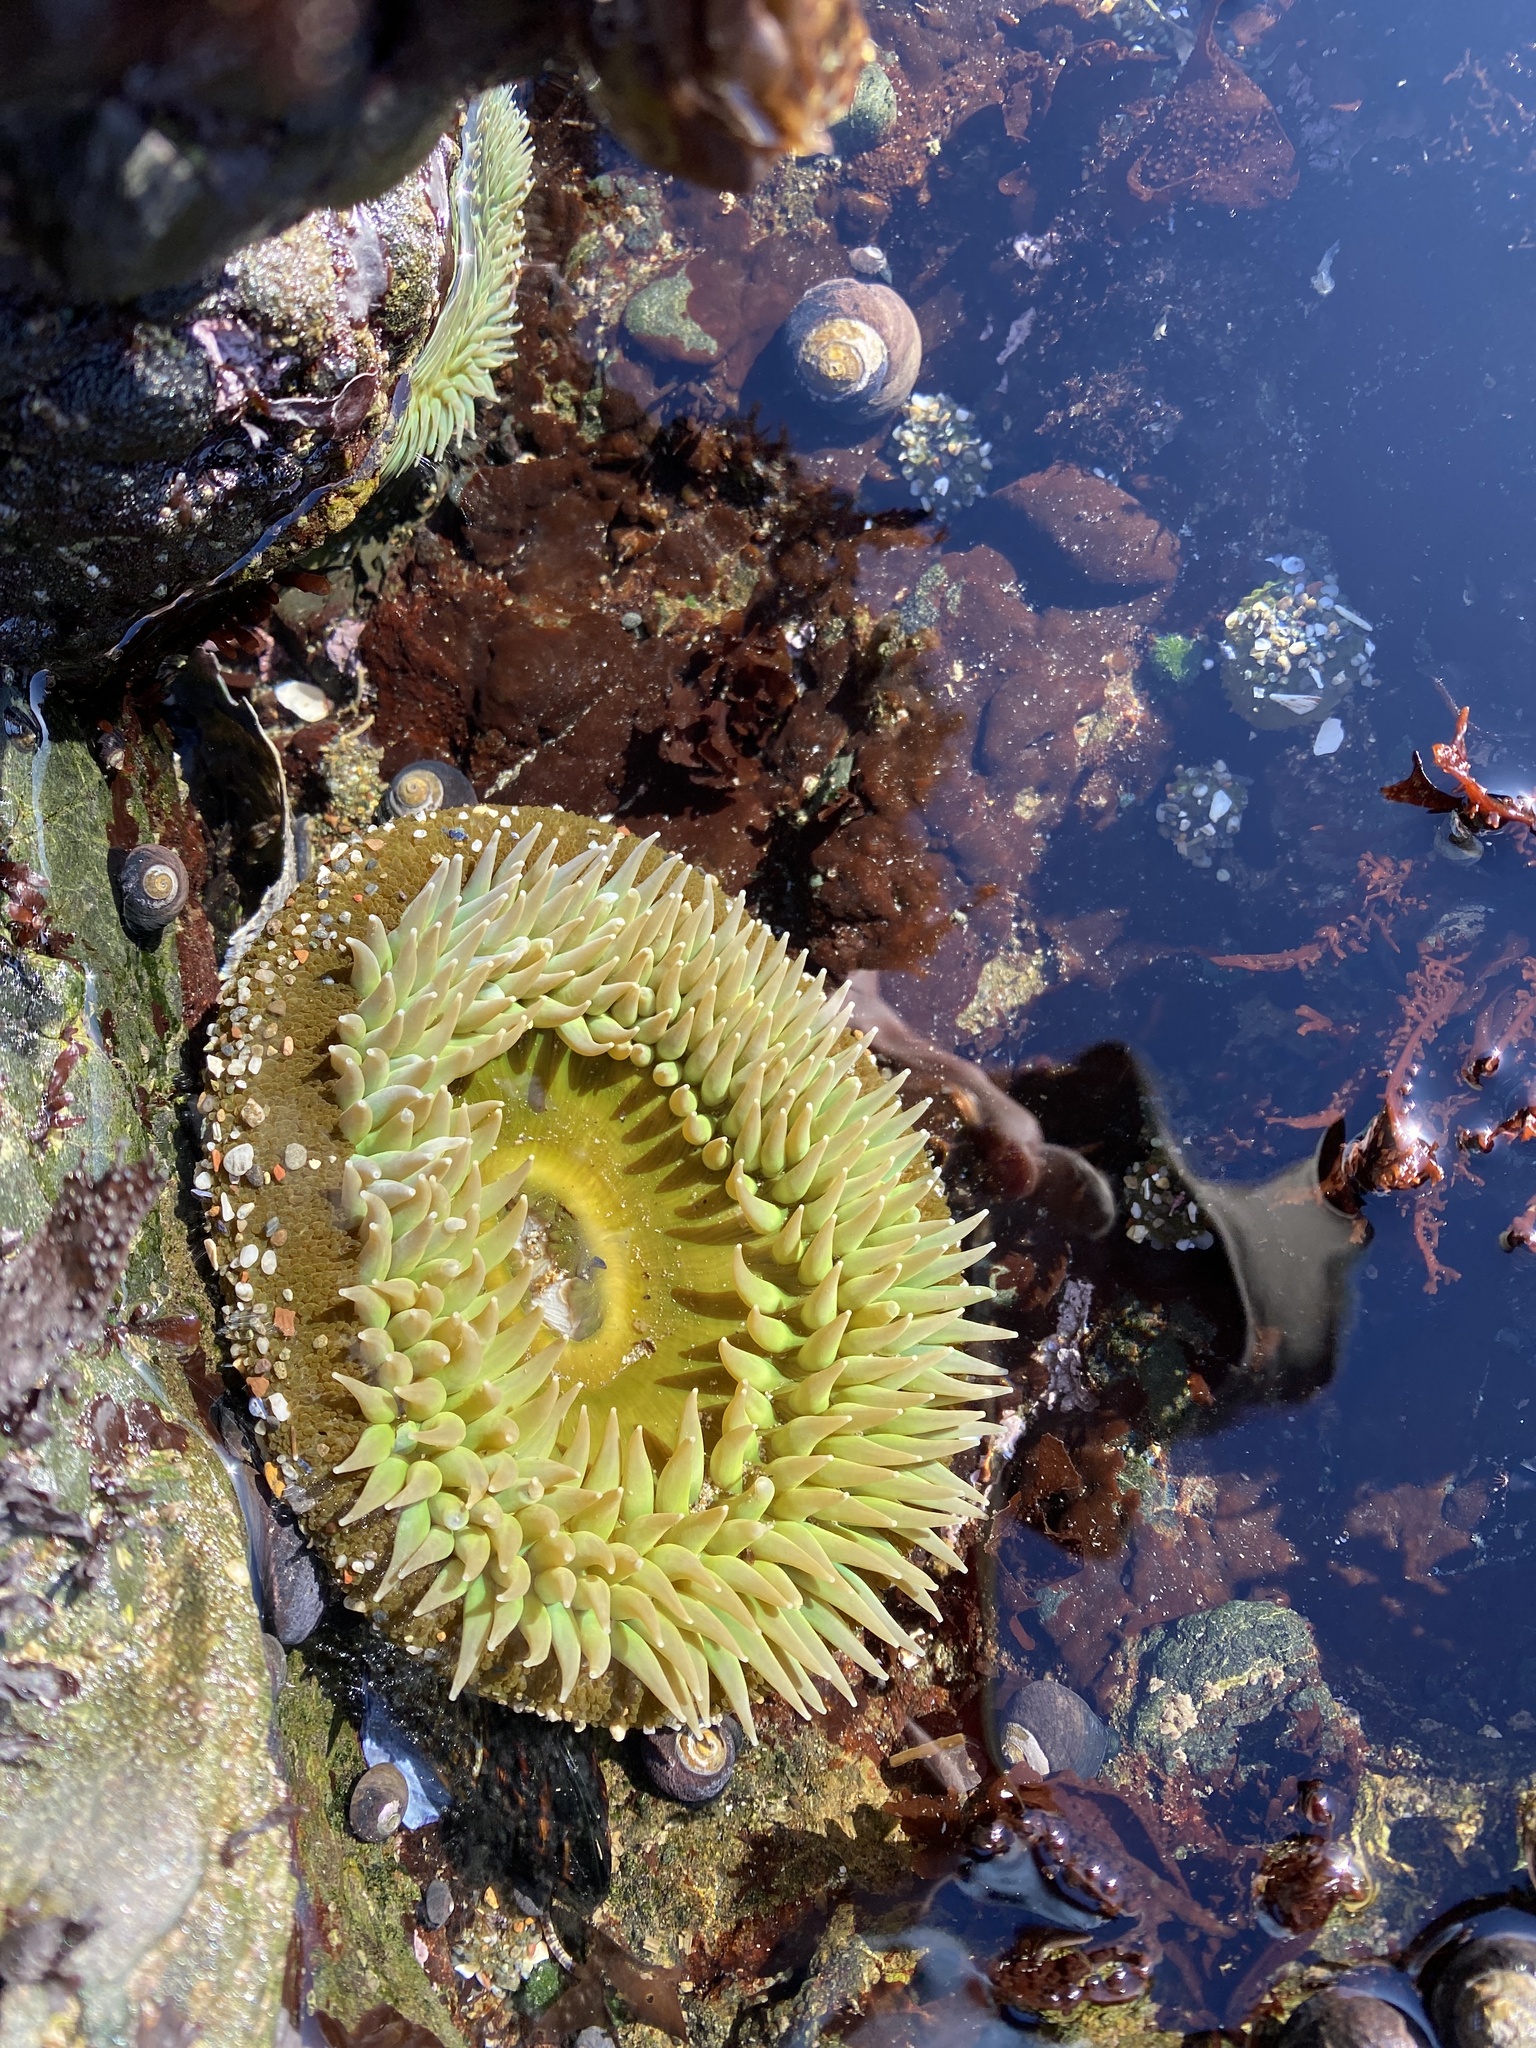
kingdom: Animalia
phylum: Cnidaria
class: Anthozoa
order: Actiniaria
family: Actiniidae
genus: Anthopleura
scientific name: Anthopleura xanthogrammica
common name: Giant green anemone
